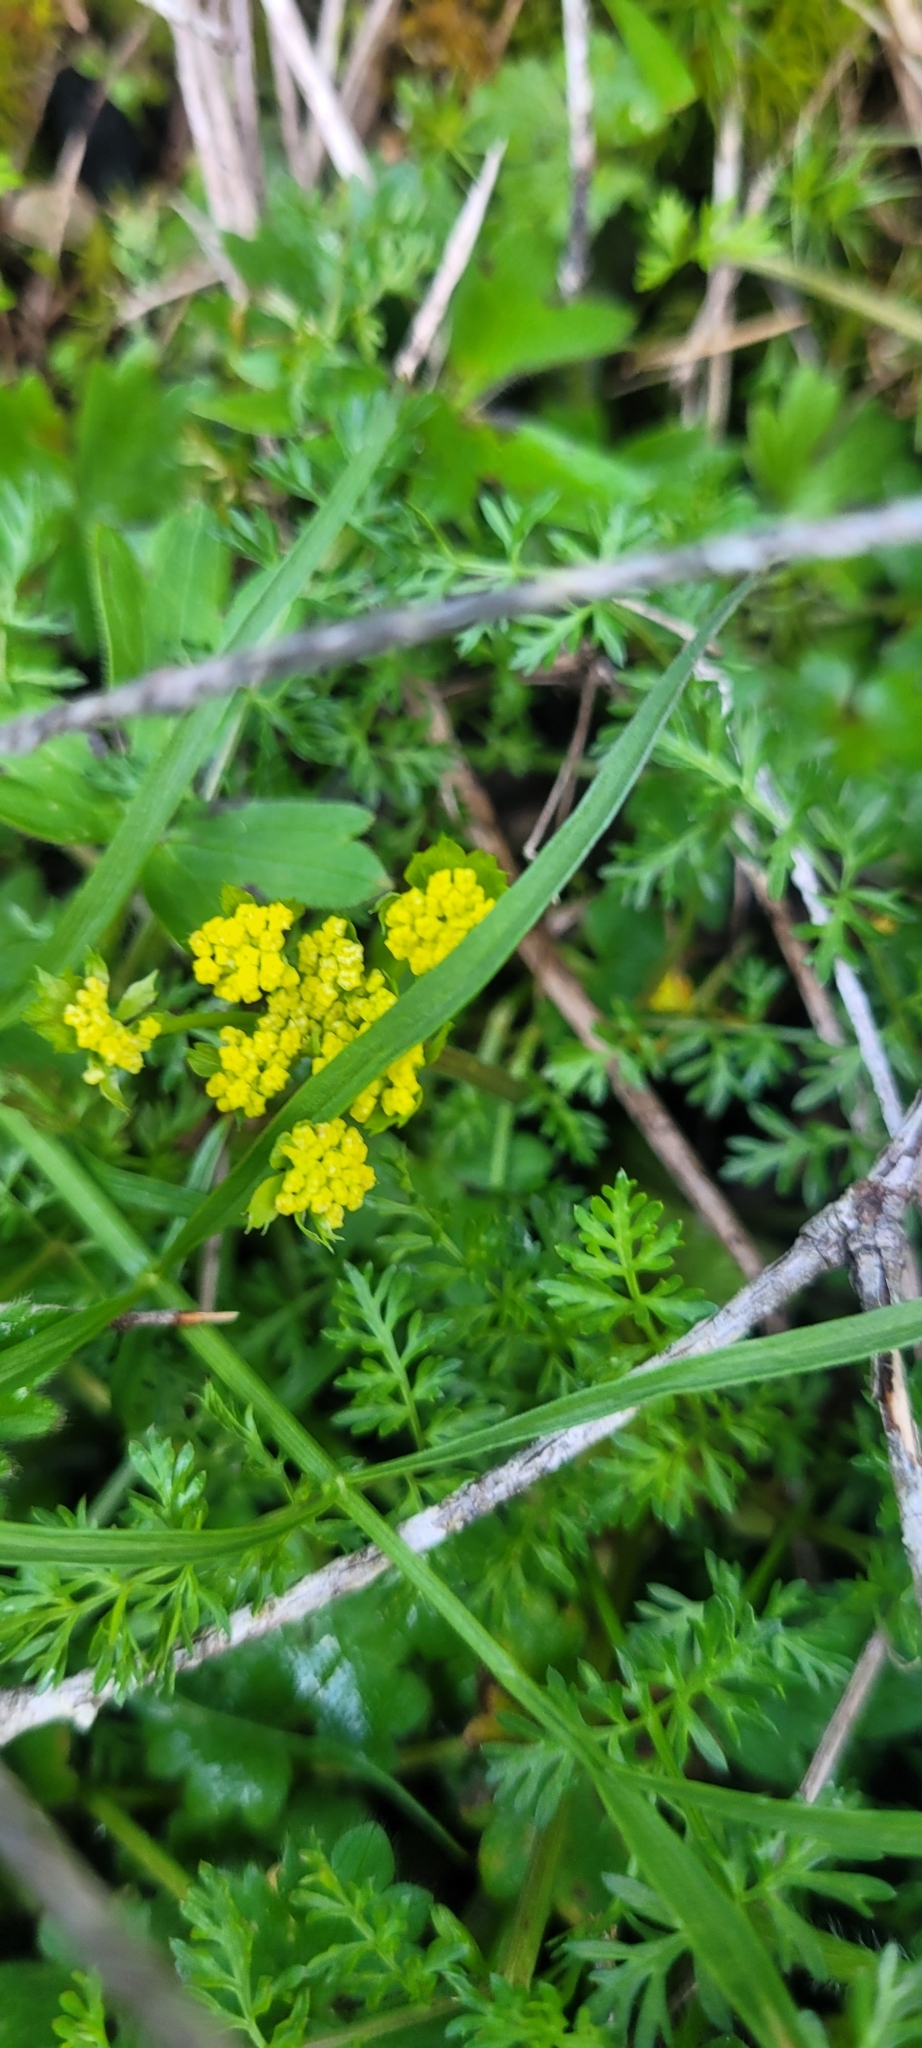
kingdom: Plantae
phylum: Tracheophyta
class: Magnoliopsida
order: Apiales
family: Apiaceae
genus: Lomatium
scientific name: Lomatium utriculatum
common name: Fine-leaf desert-parsley
